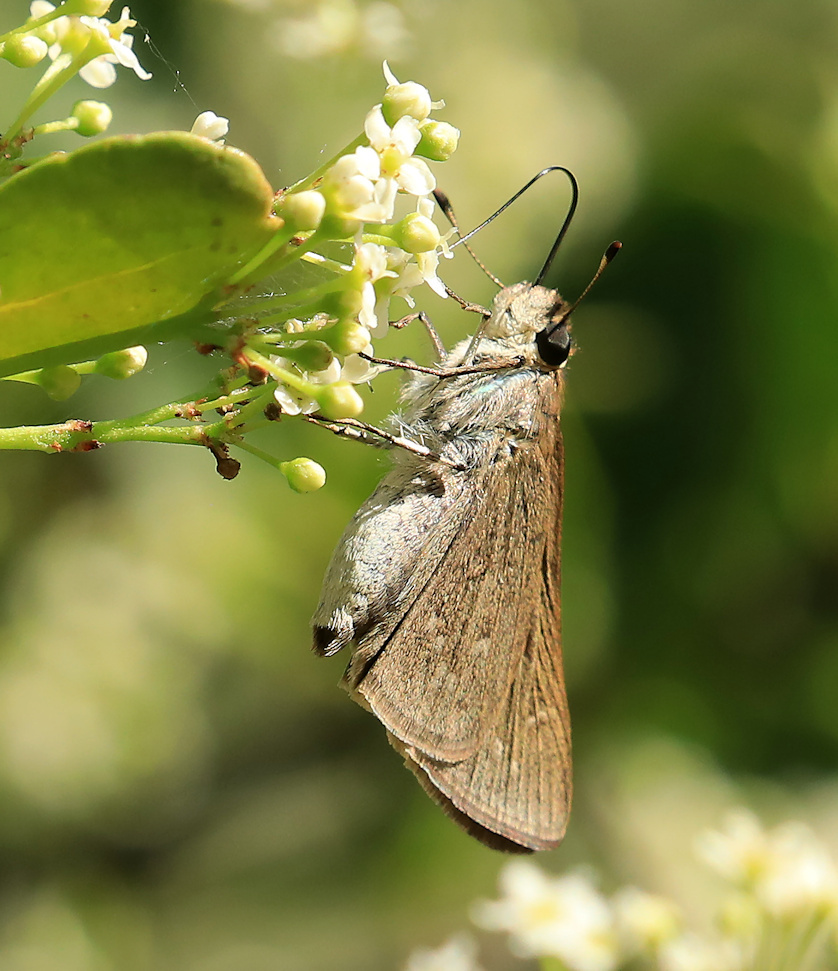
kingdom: Animalia
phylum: Arthropoda
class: Insecta
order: Lepidoptera
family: Hesperiidae
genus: Gegenes
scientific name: Gegenes pumilio
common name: Pigmy skipper
